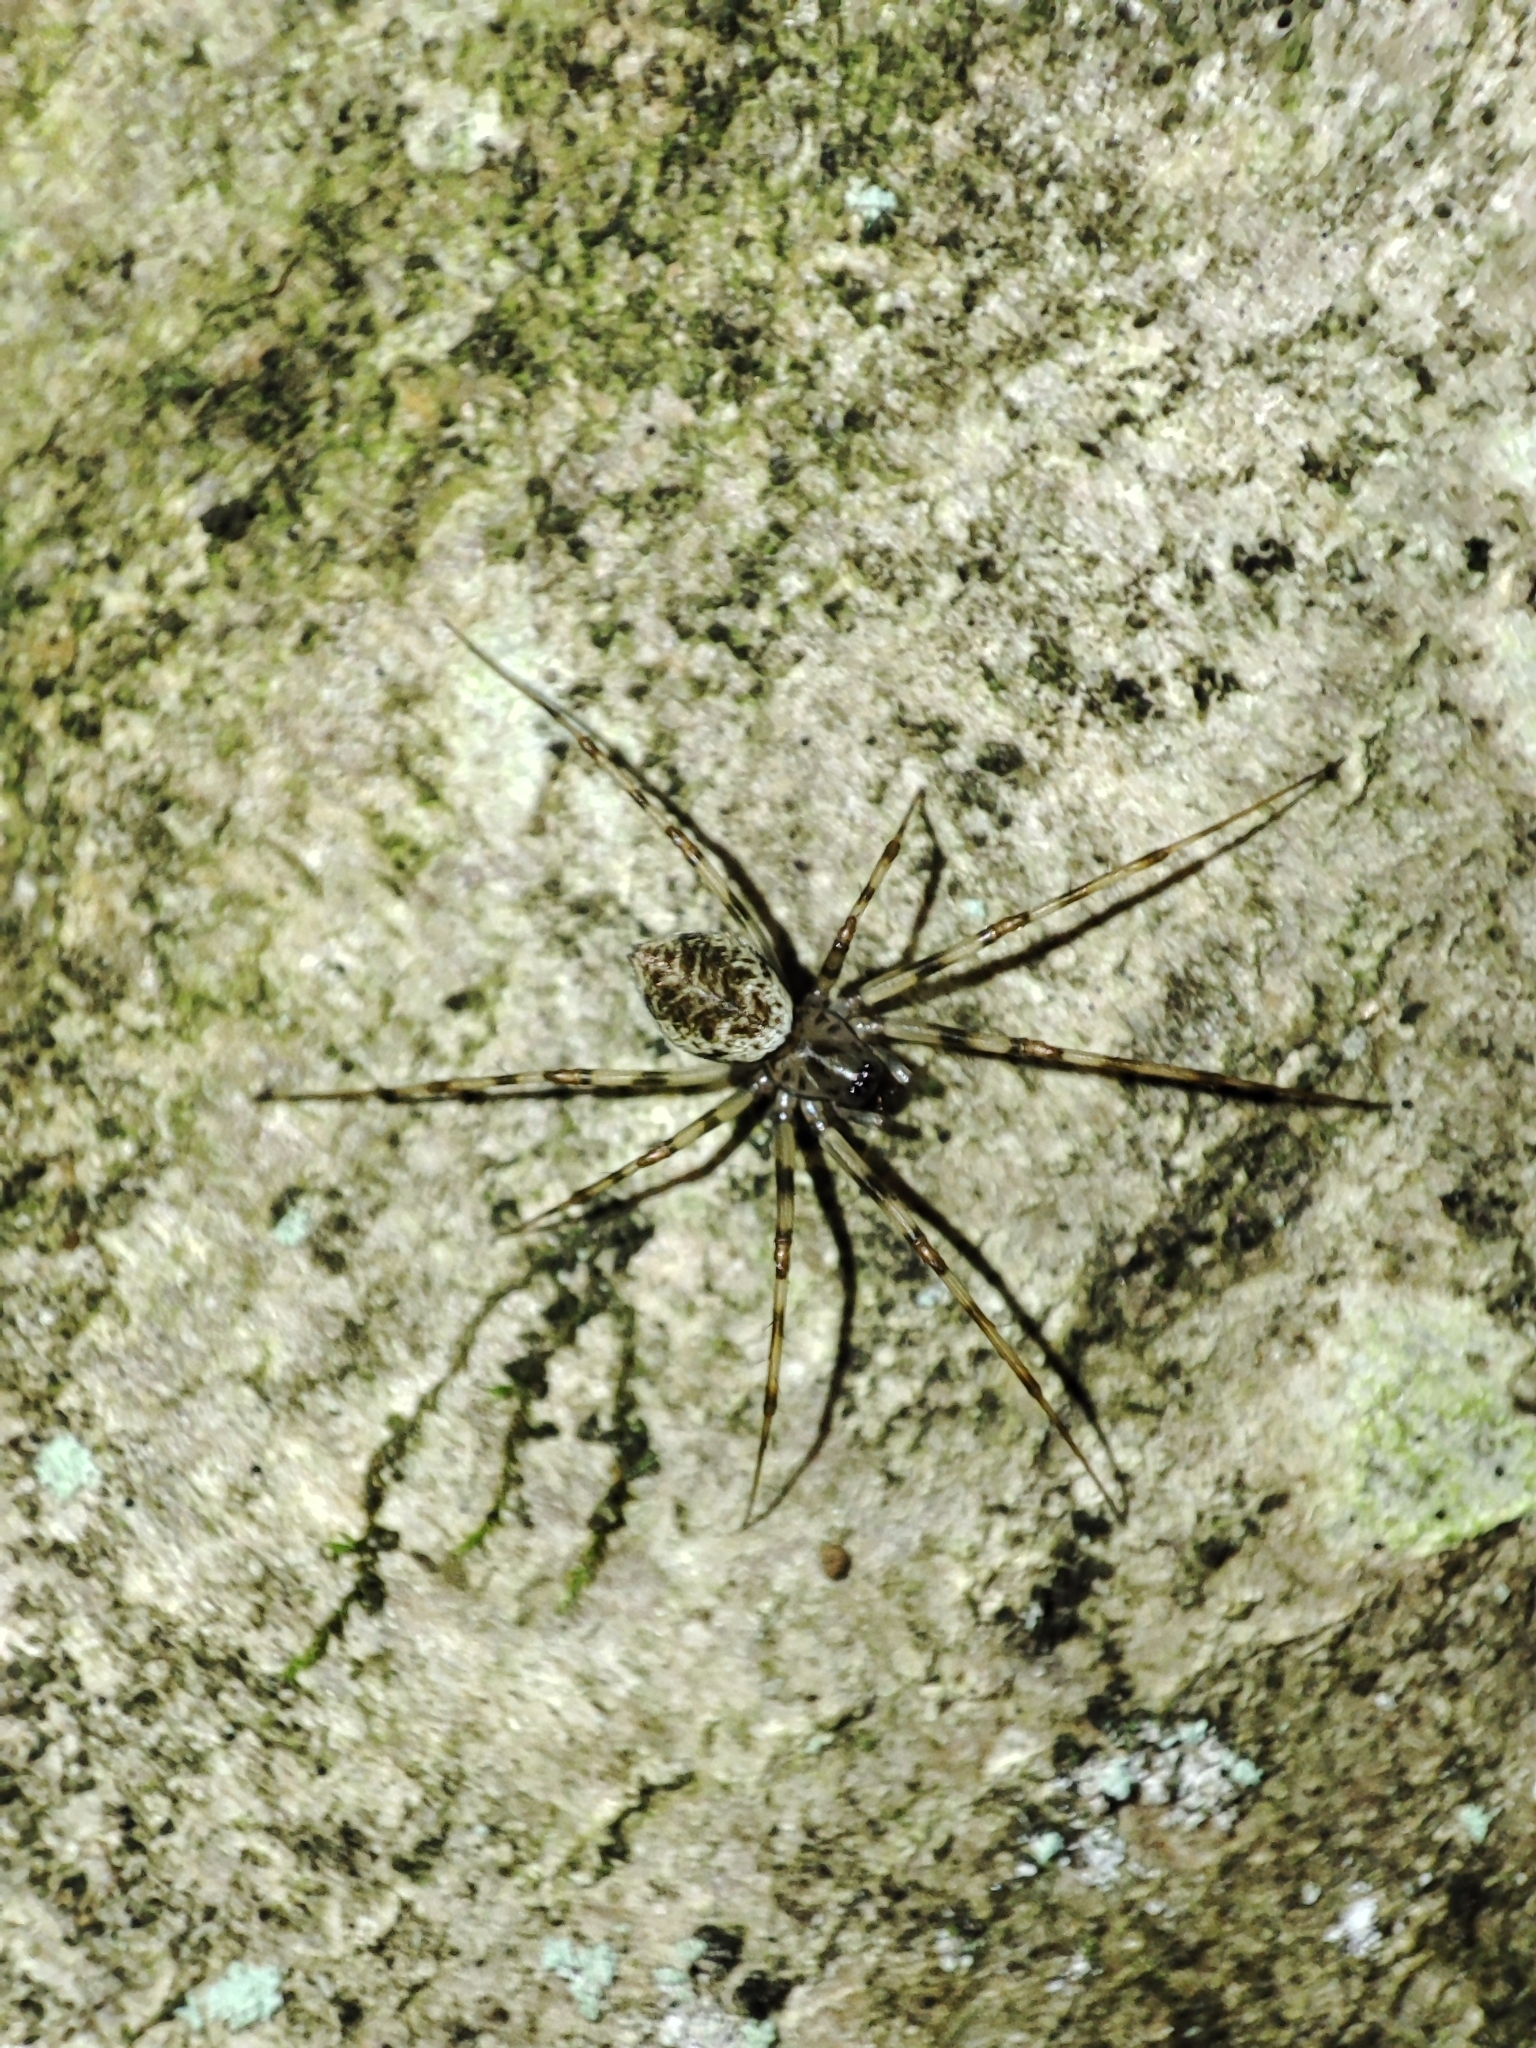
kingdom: Animalia
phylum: Arthropoda
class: Arachnida
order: Araneae
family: Linyphiidae
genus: Drapetisca
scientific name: Drapetisca socialis
